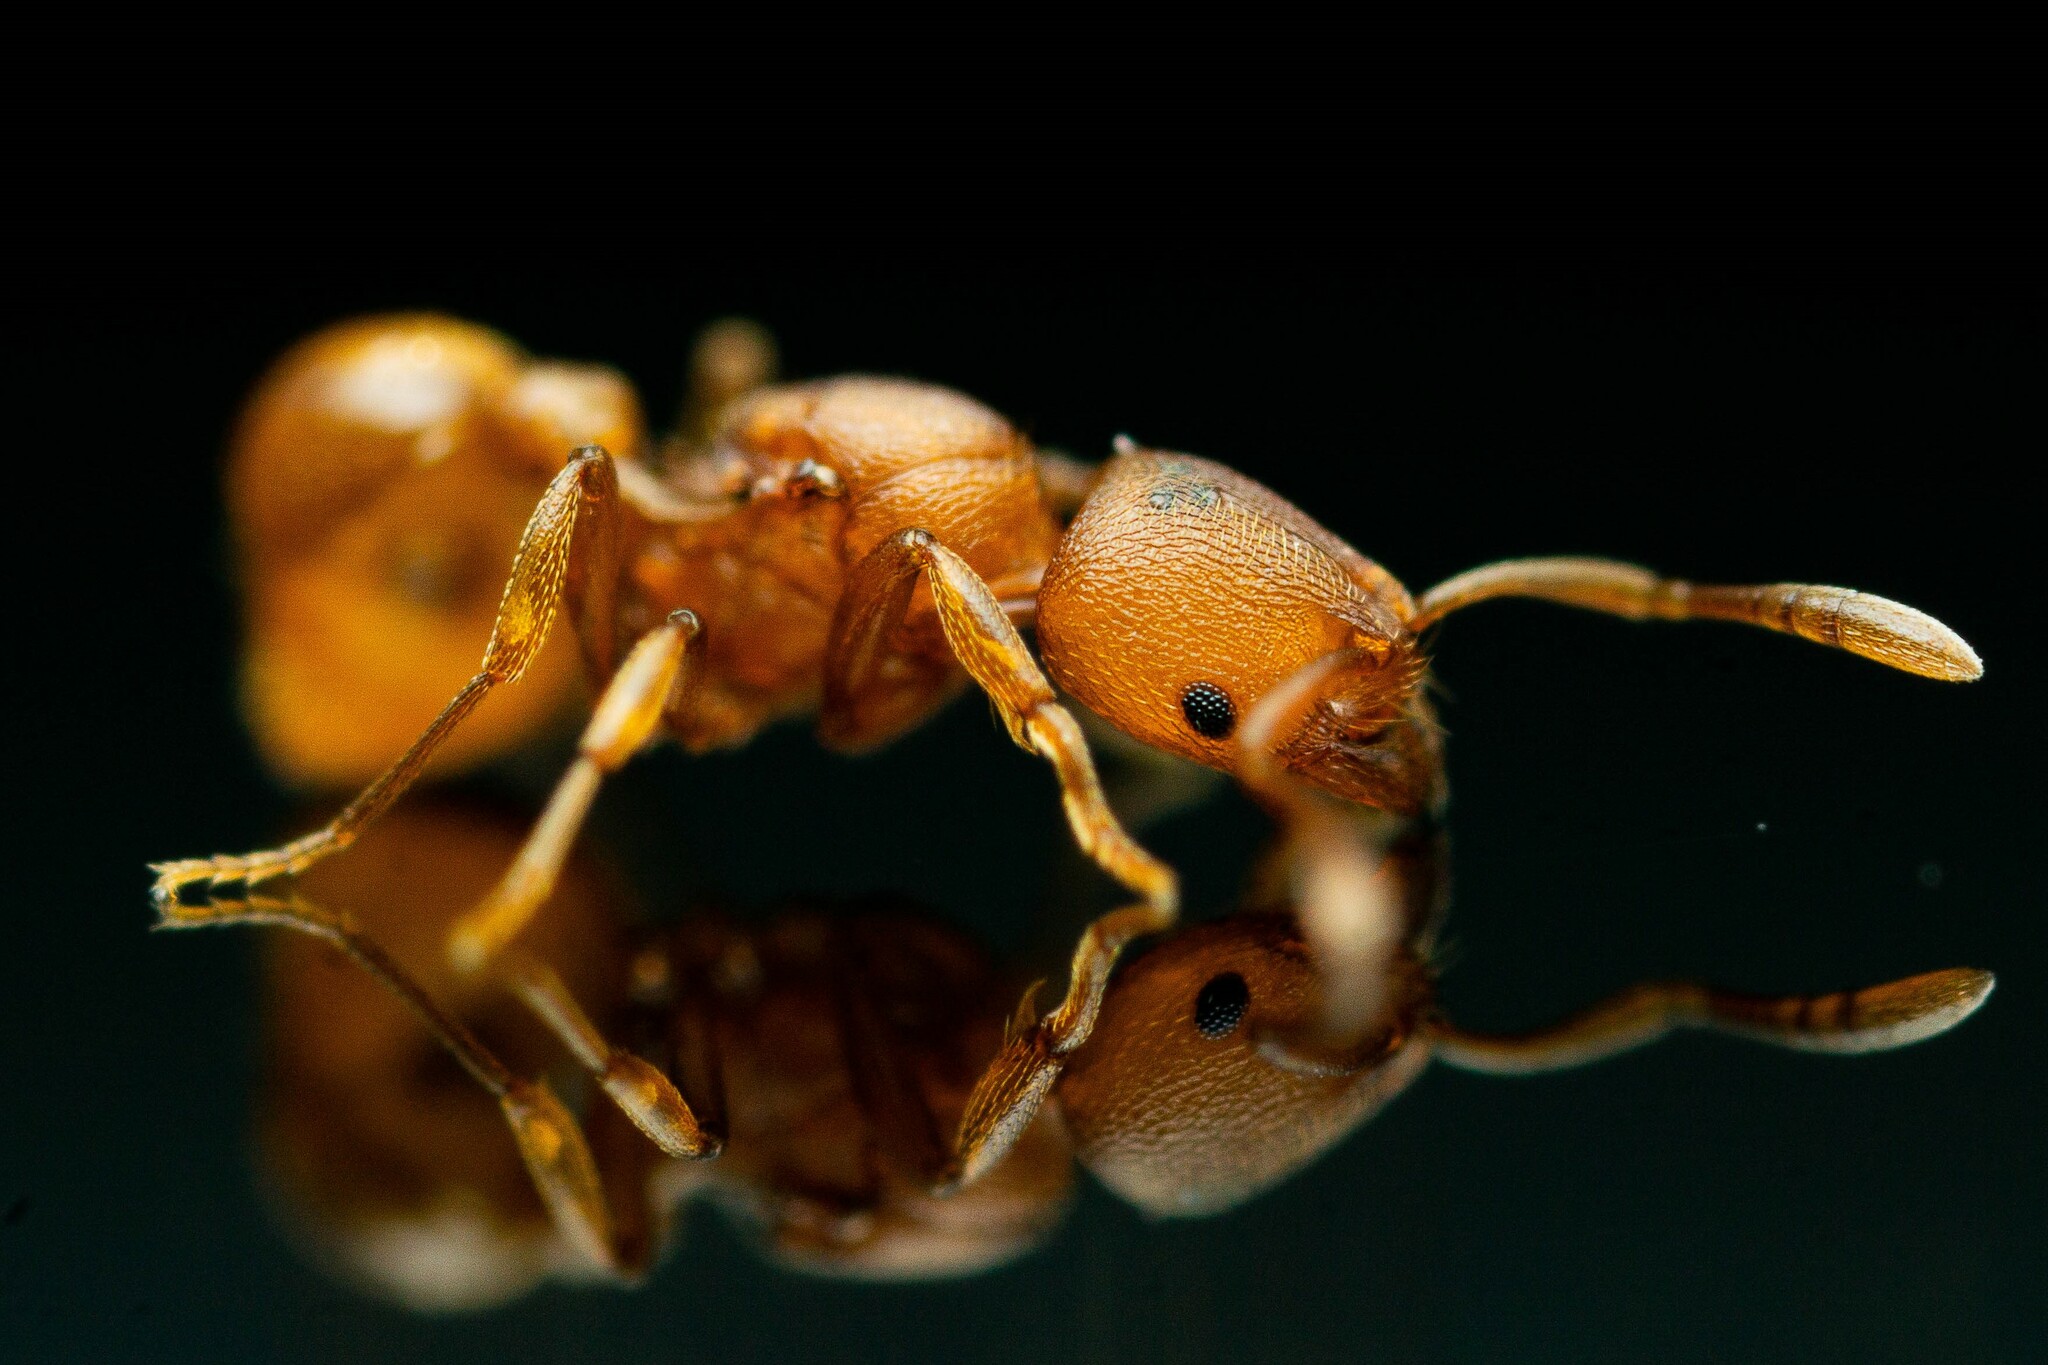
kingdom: Animalia
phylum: Arthropoda
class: Insecta
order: Hymenoptera
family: Formicidae
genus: Rogeria
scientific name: Rogeria foreli
